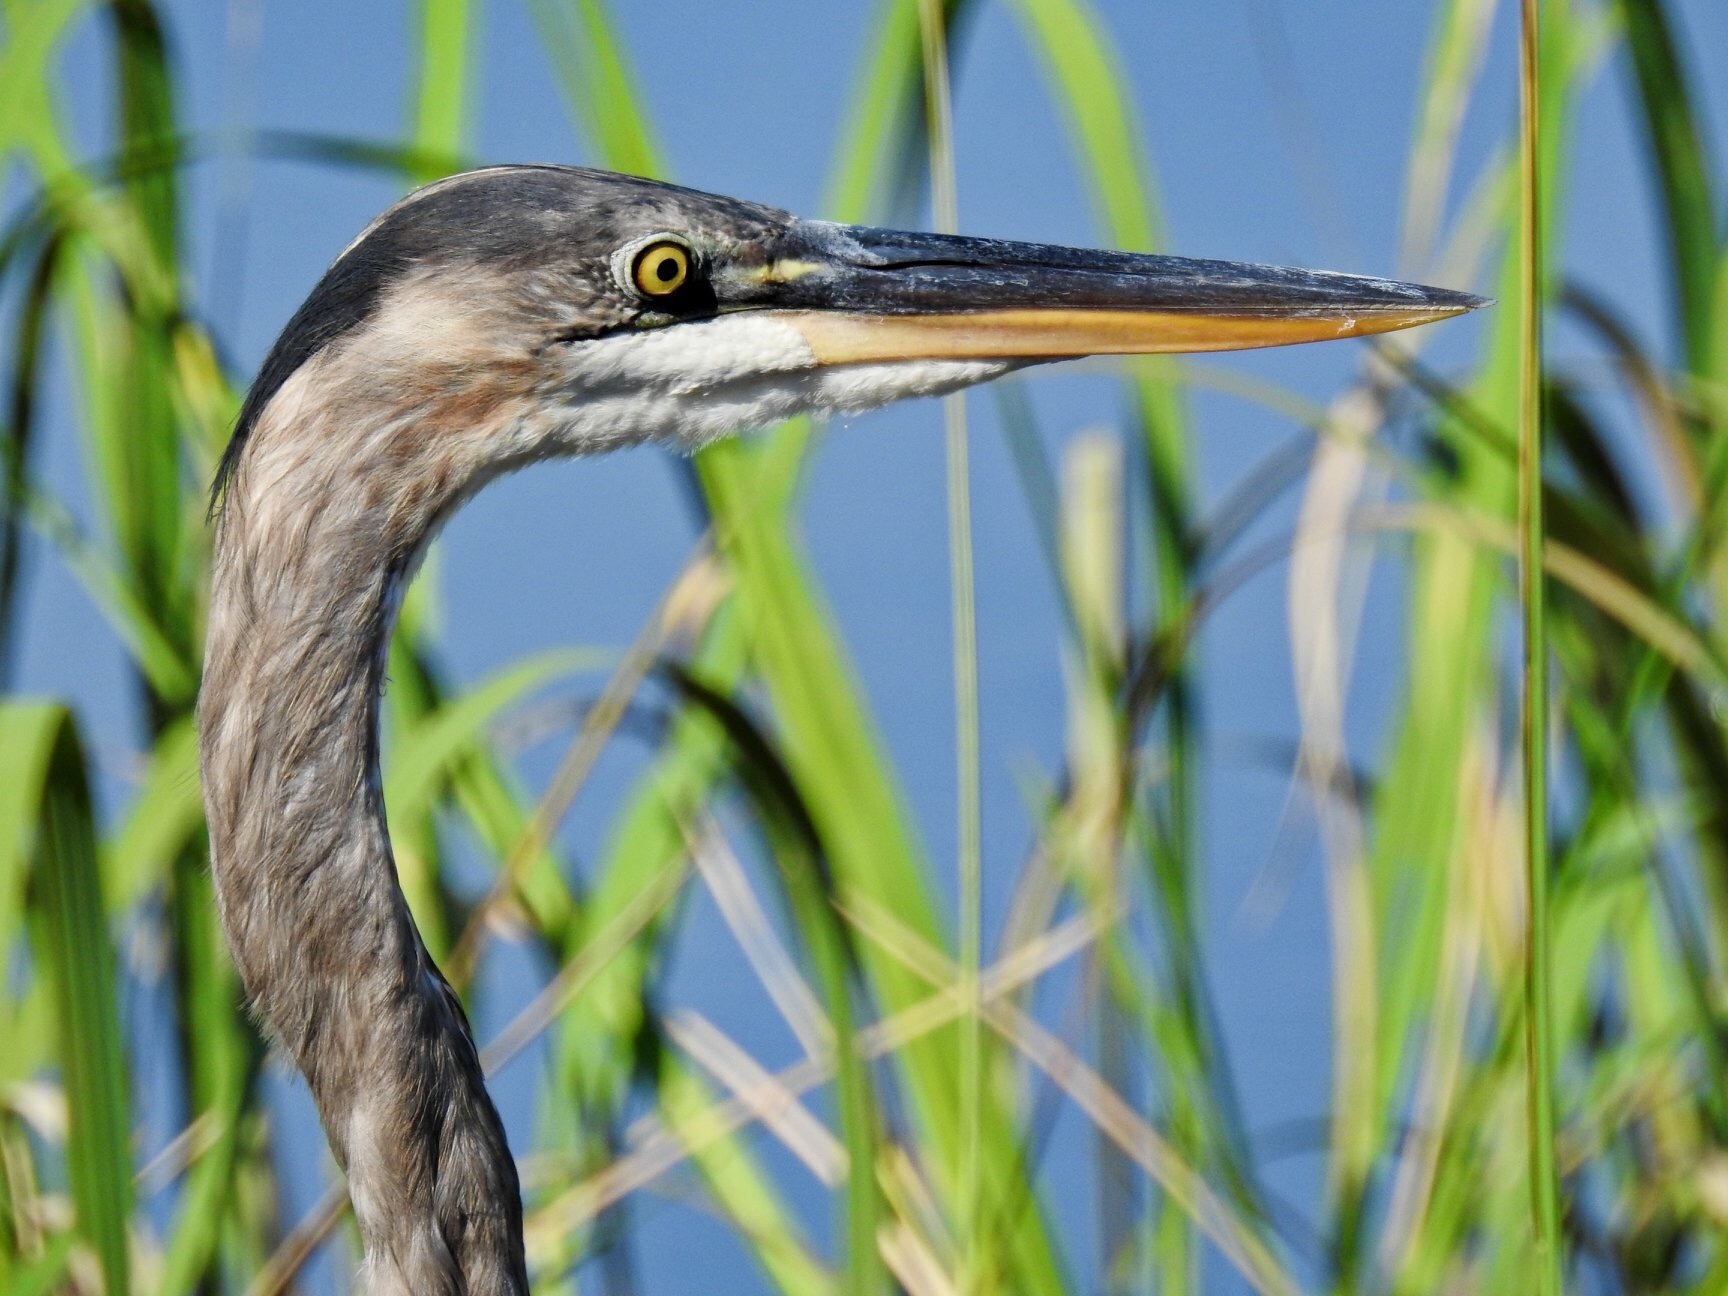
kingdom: Animalia
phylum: Chordata
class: Aves
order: Pelecaniformes
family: Ardeidae
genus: Ardea
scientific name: Ardea herodias
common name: Great blue heron
